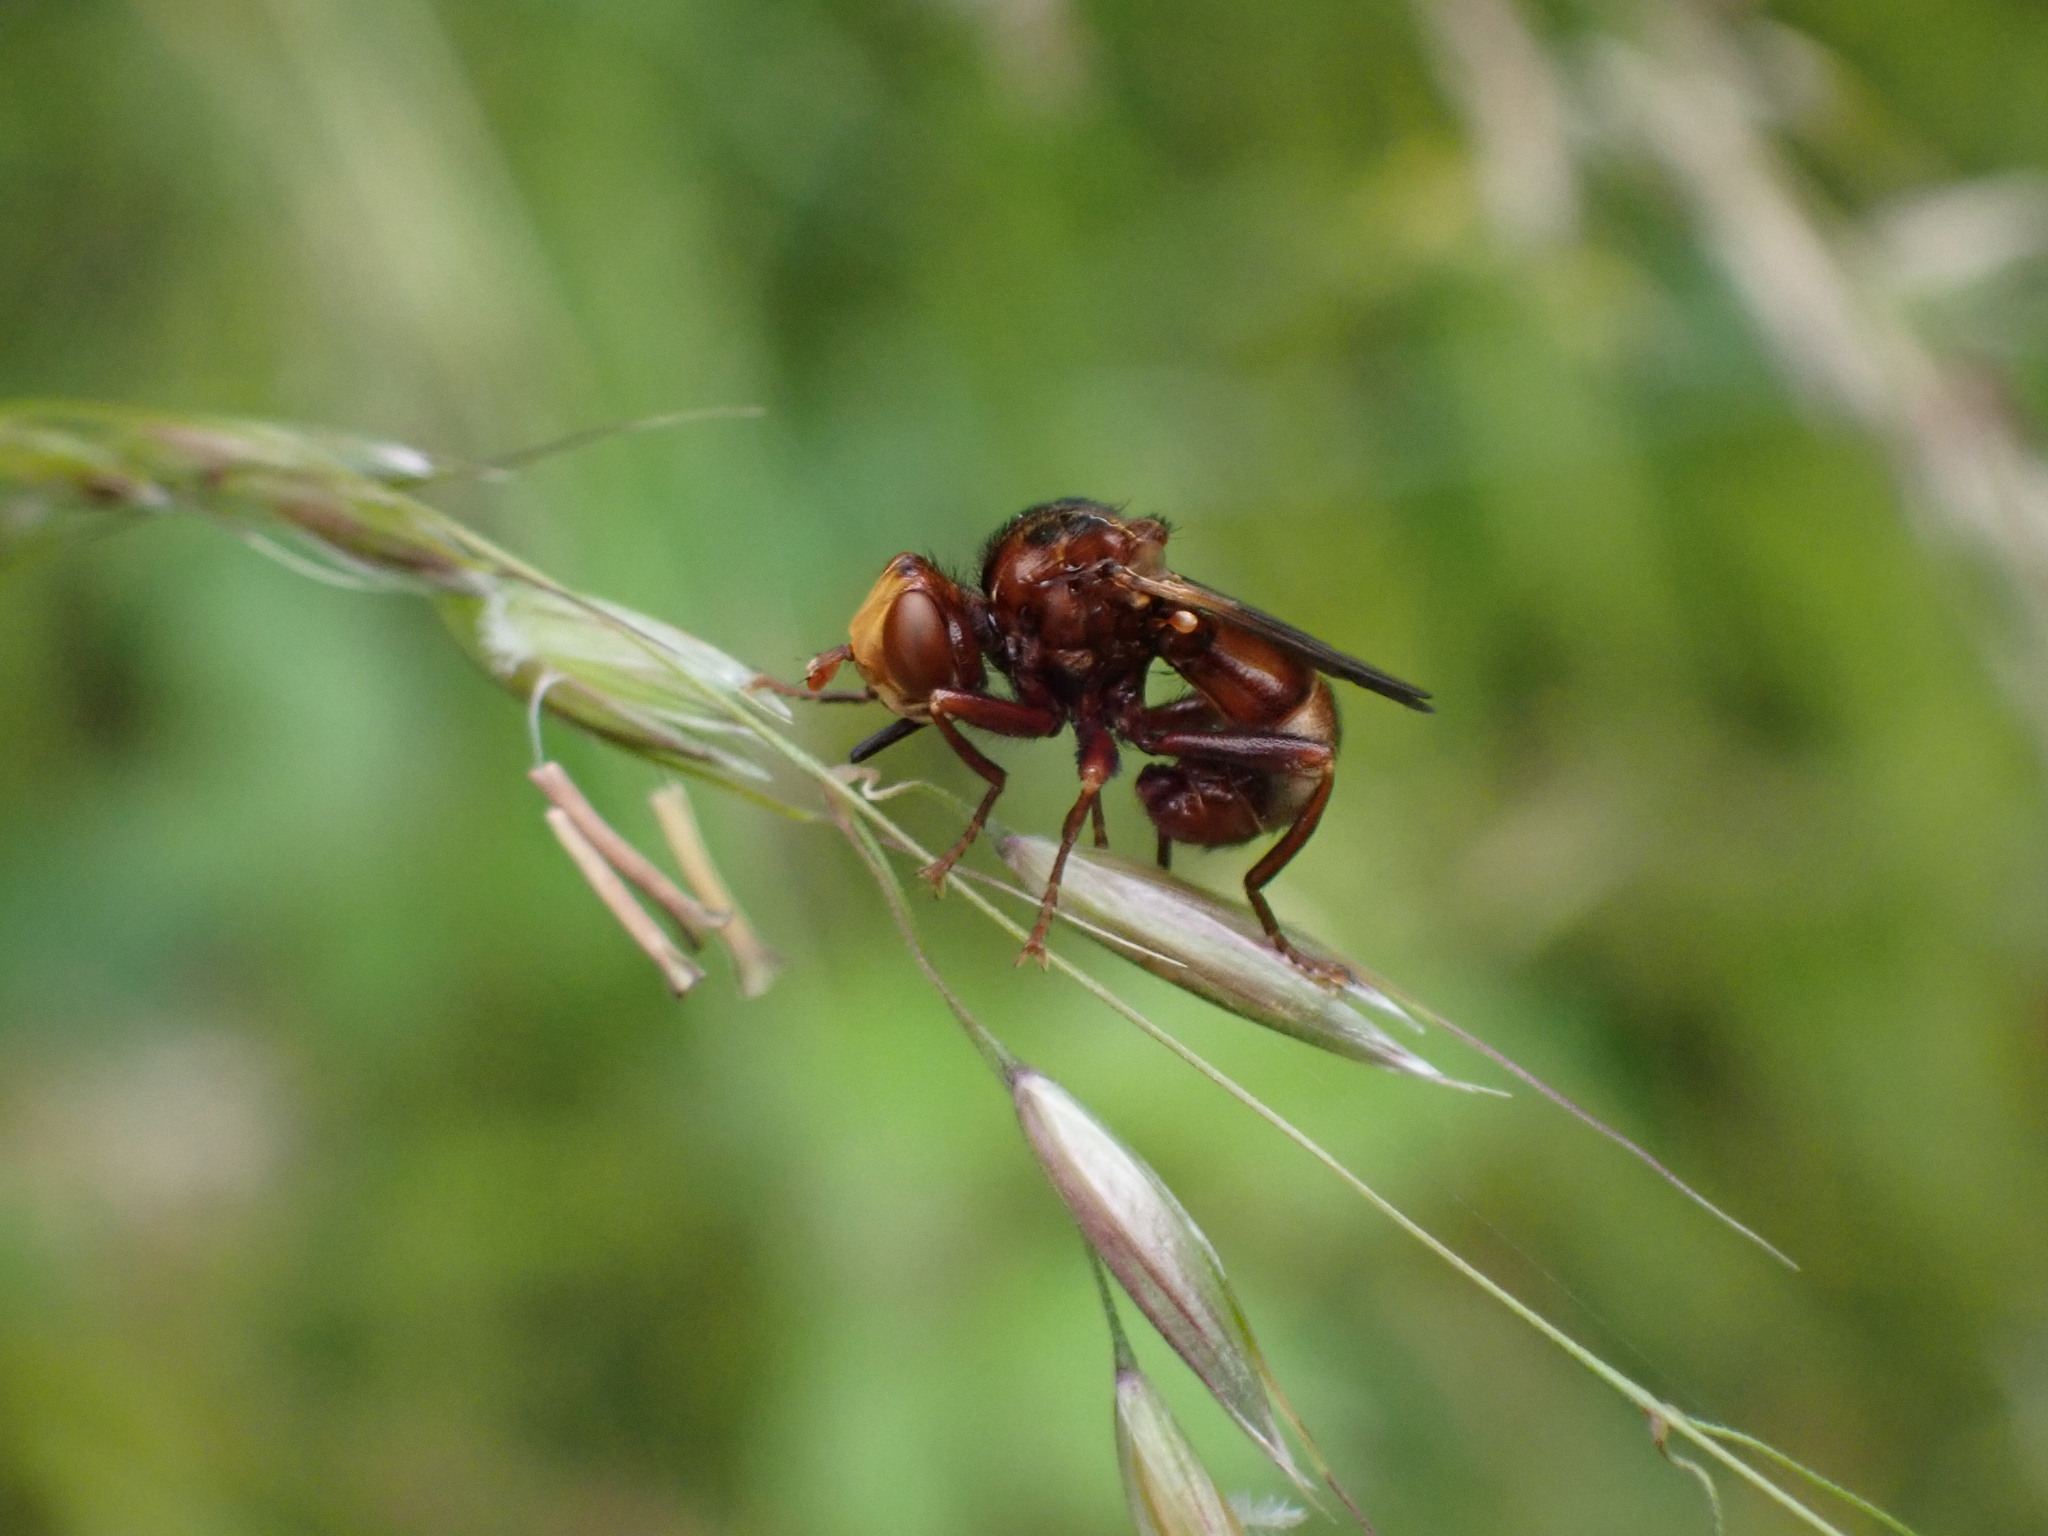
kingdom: Animalia
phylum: Arthropoda
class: Insecta
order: Diptera
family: Conopidae
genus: Sicus
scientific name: Sicus ferrugineus
